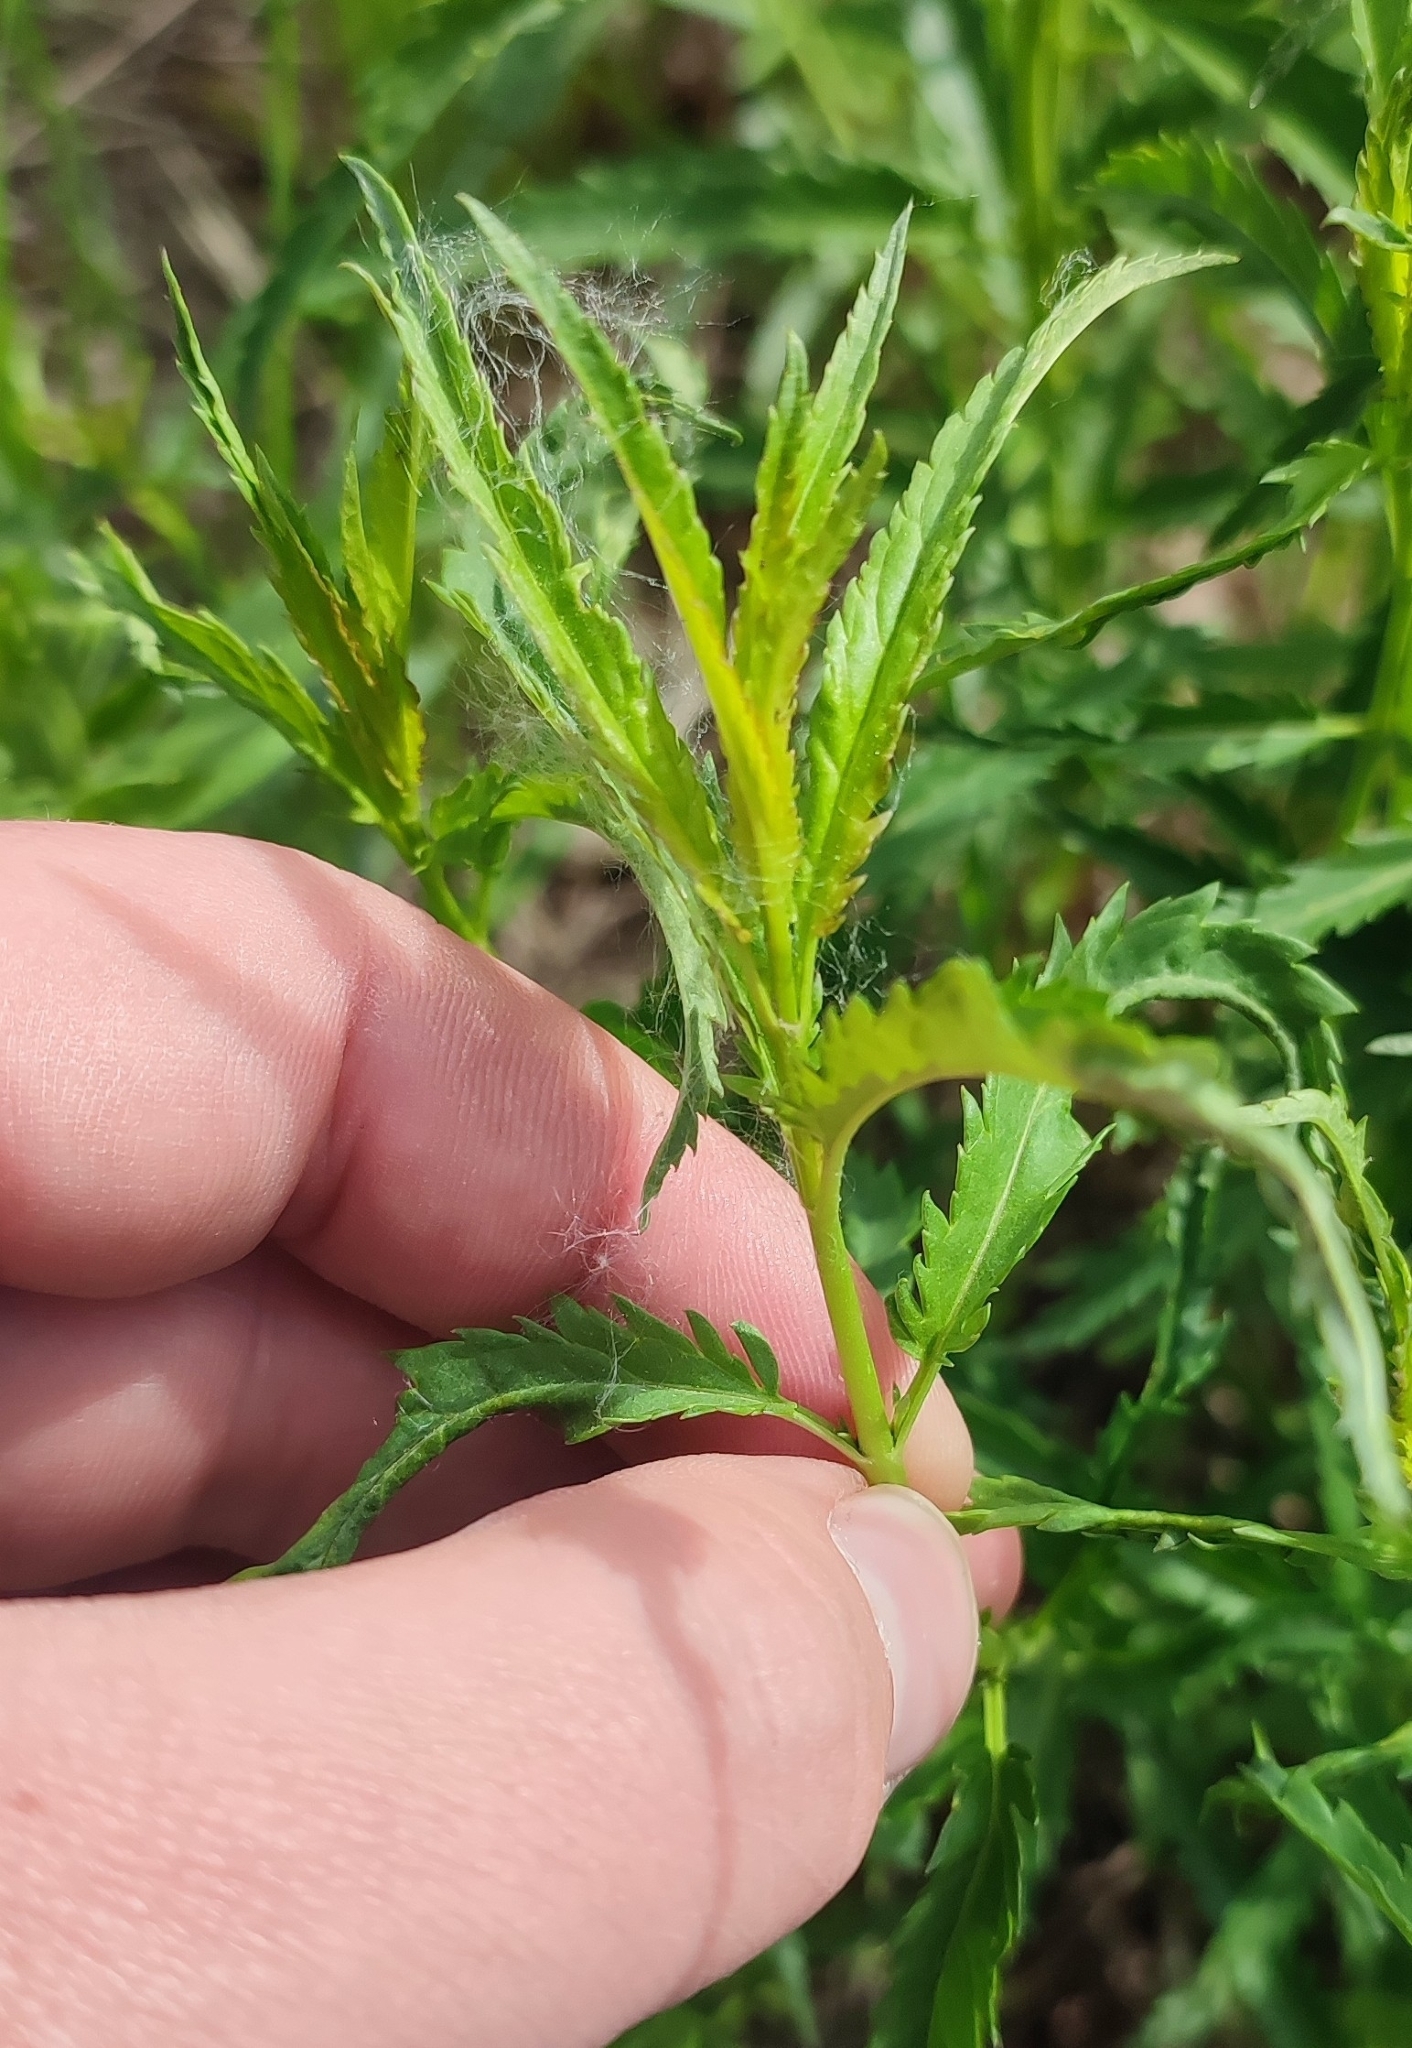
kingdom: Plantae
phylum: Tracheophyta
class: Magnoliopsida
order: Lamiales
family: Plantaginaceae
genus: Veronica
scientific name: Veronica longifolia
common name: Garden speedwell
